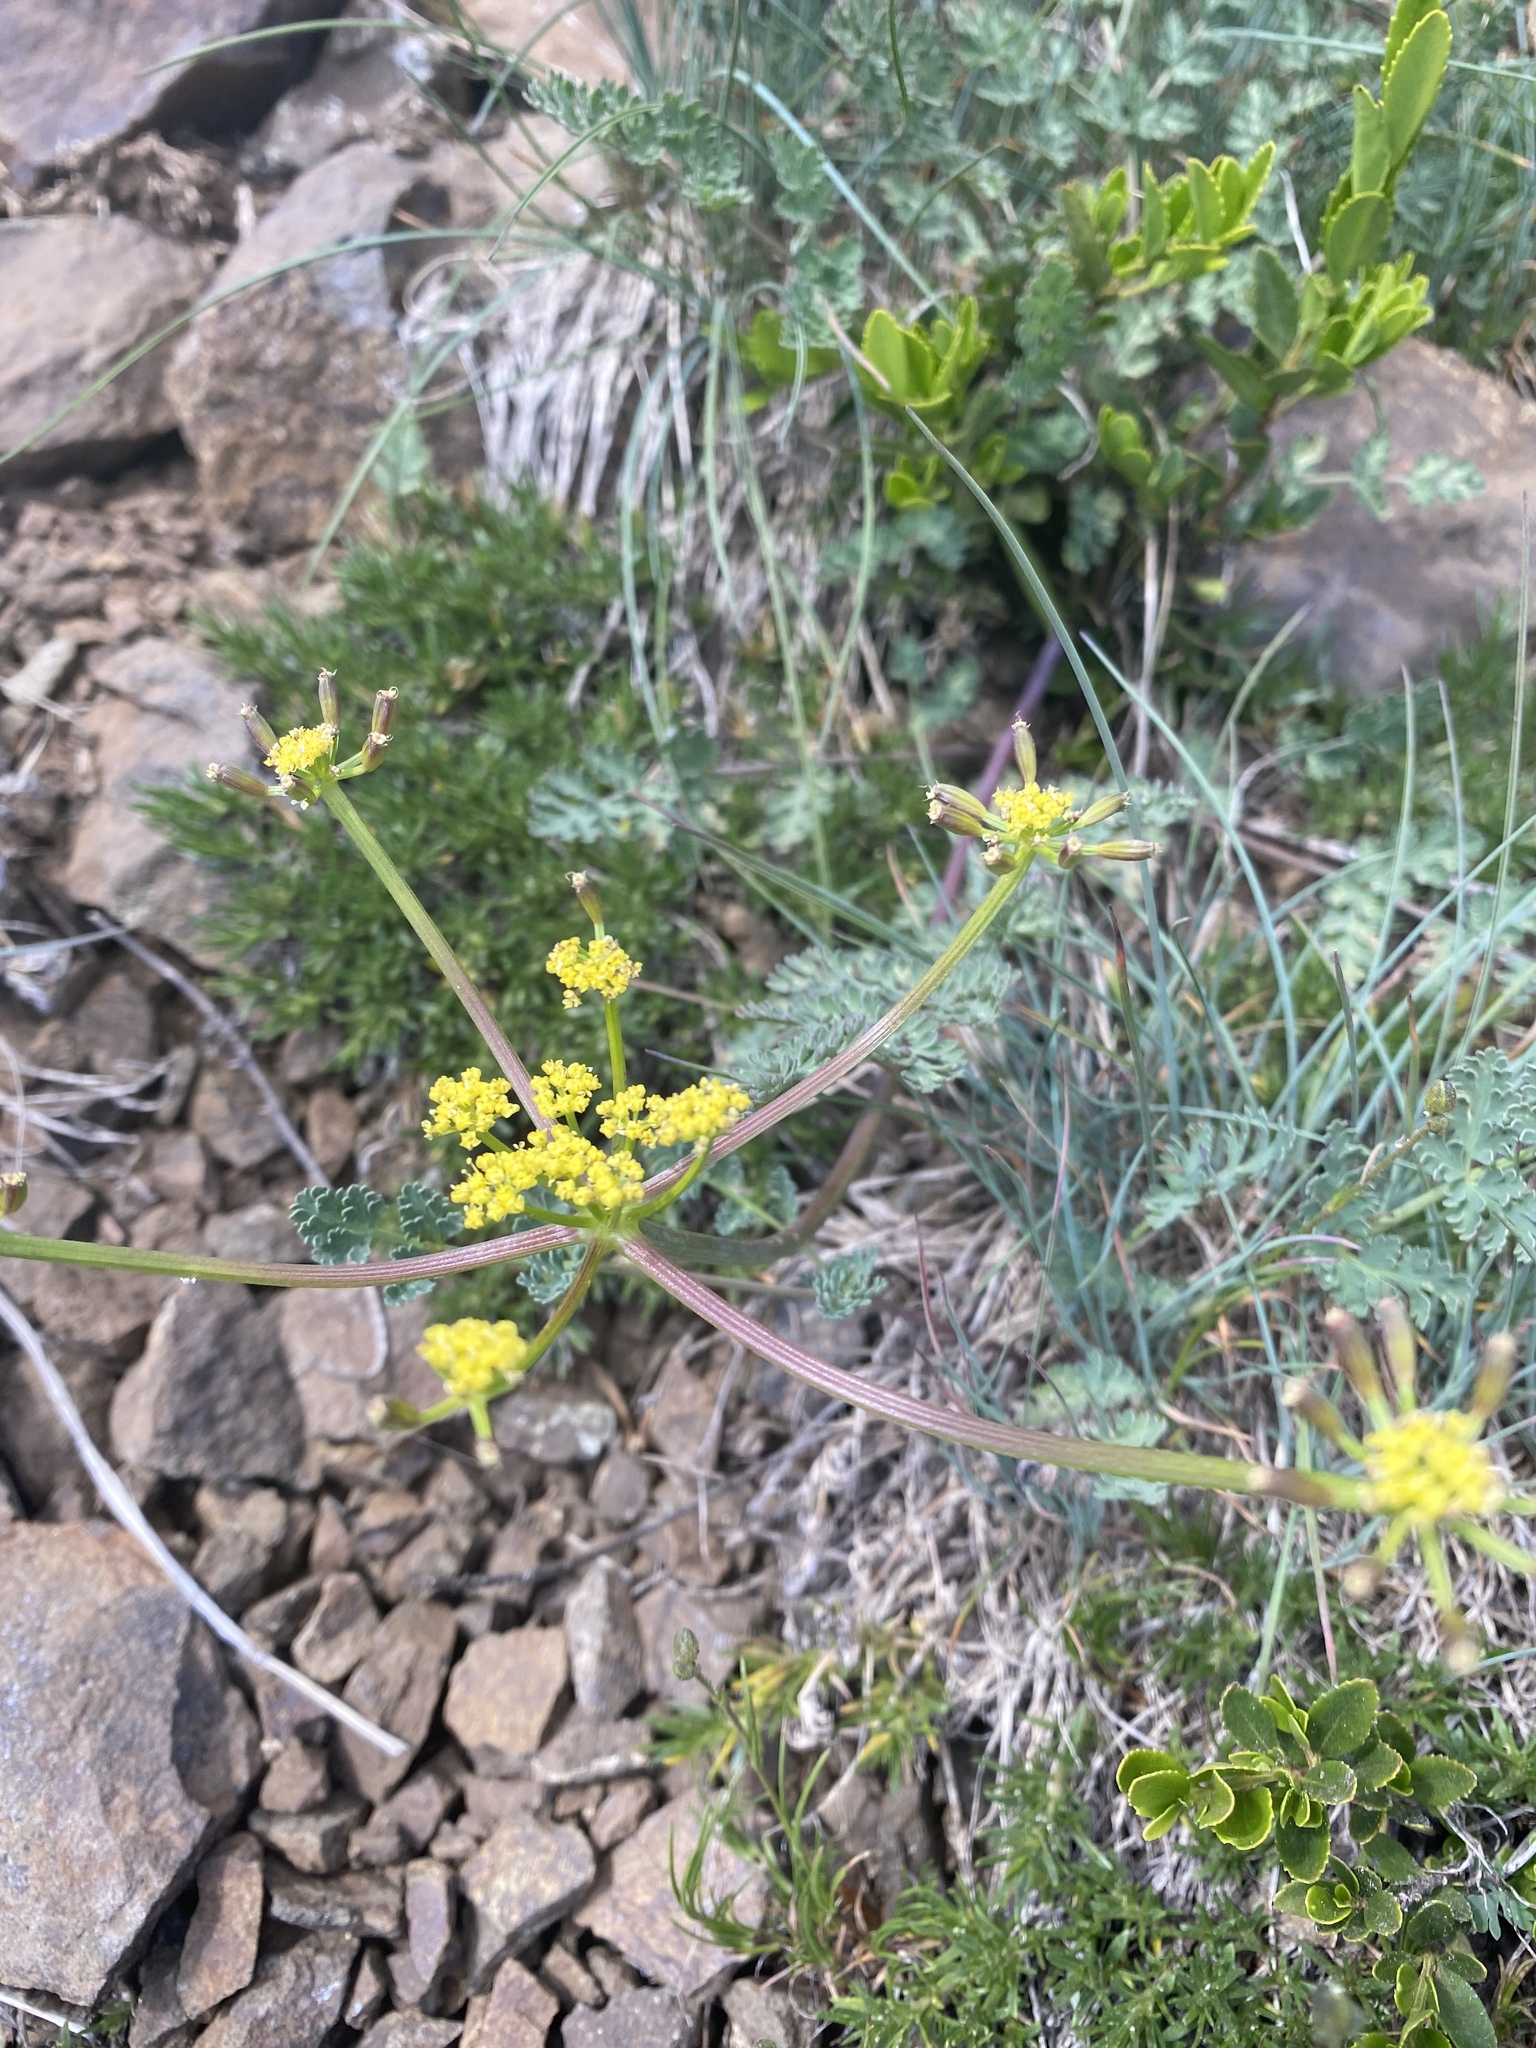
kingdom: Plantae
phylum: Tracheophyta
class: Magnoliopsida
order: Apiales
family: Apiaceae
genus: Lomatium
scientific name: Lomatium martindalei
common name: Cascade desert-parsley
